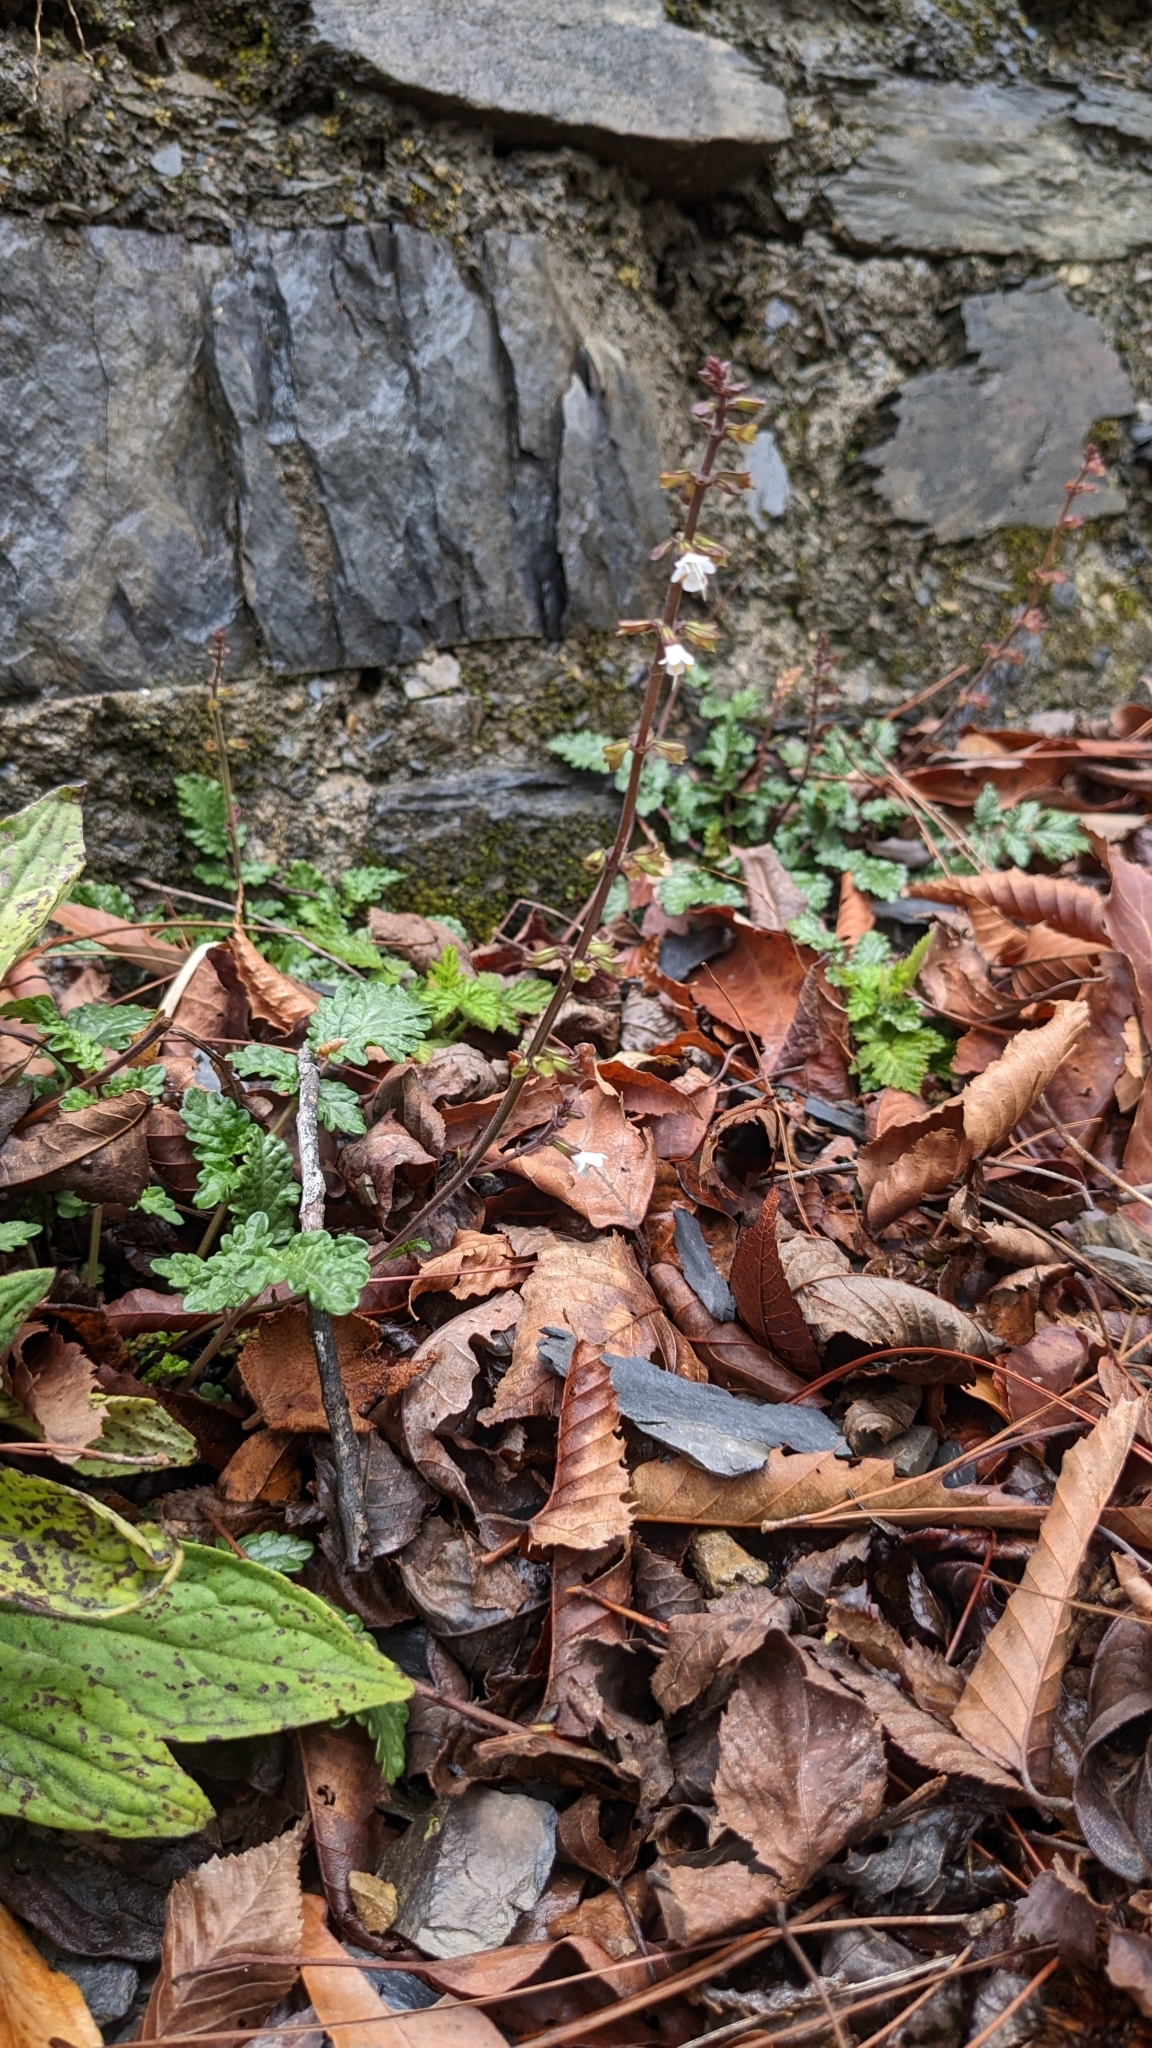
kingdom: Plantae
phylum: Tracheophyta
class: Magnoliopsida
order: Lamiales
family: Lamiaceae
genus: Salvia
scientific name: Salvia hayatae
